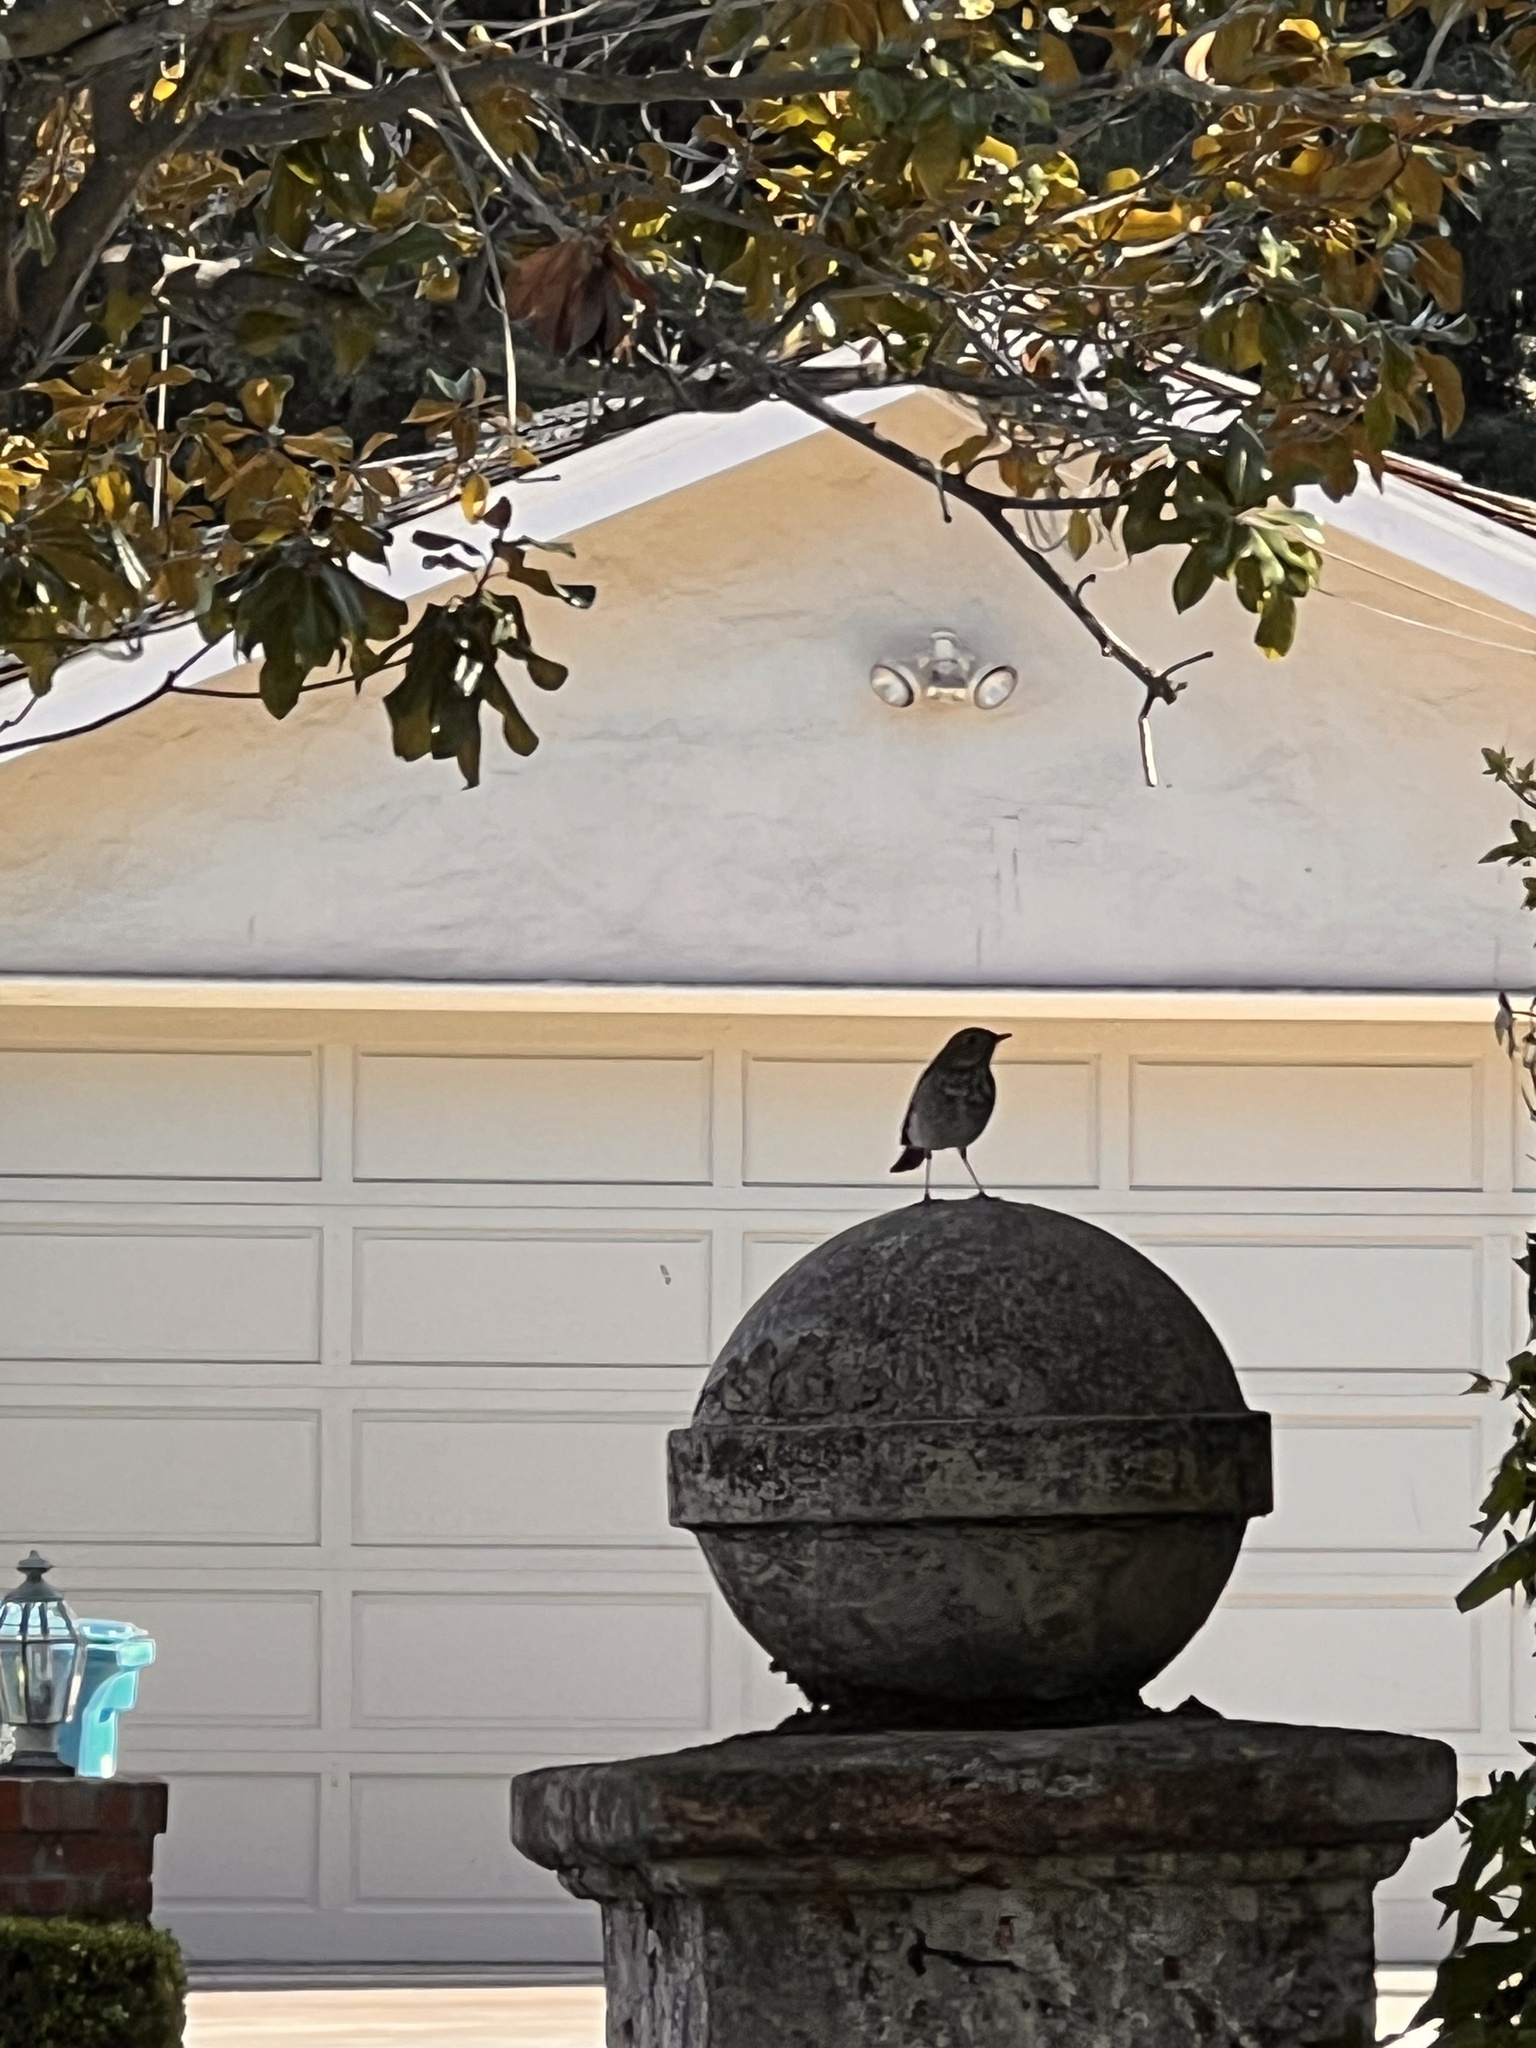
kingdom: Animalia
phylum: Chordata
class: Aves
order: Passeriformes
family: Turdidae
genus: Catharus
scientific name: Catharus guttatus
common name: Hermit thrush
